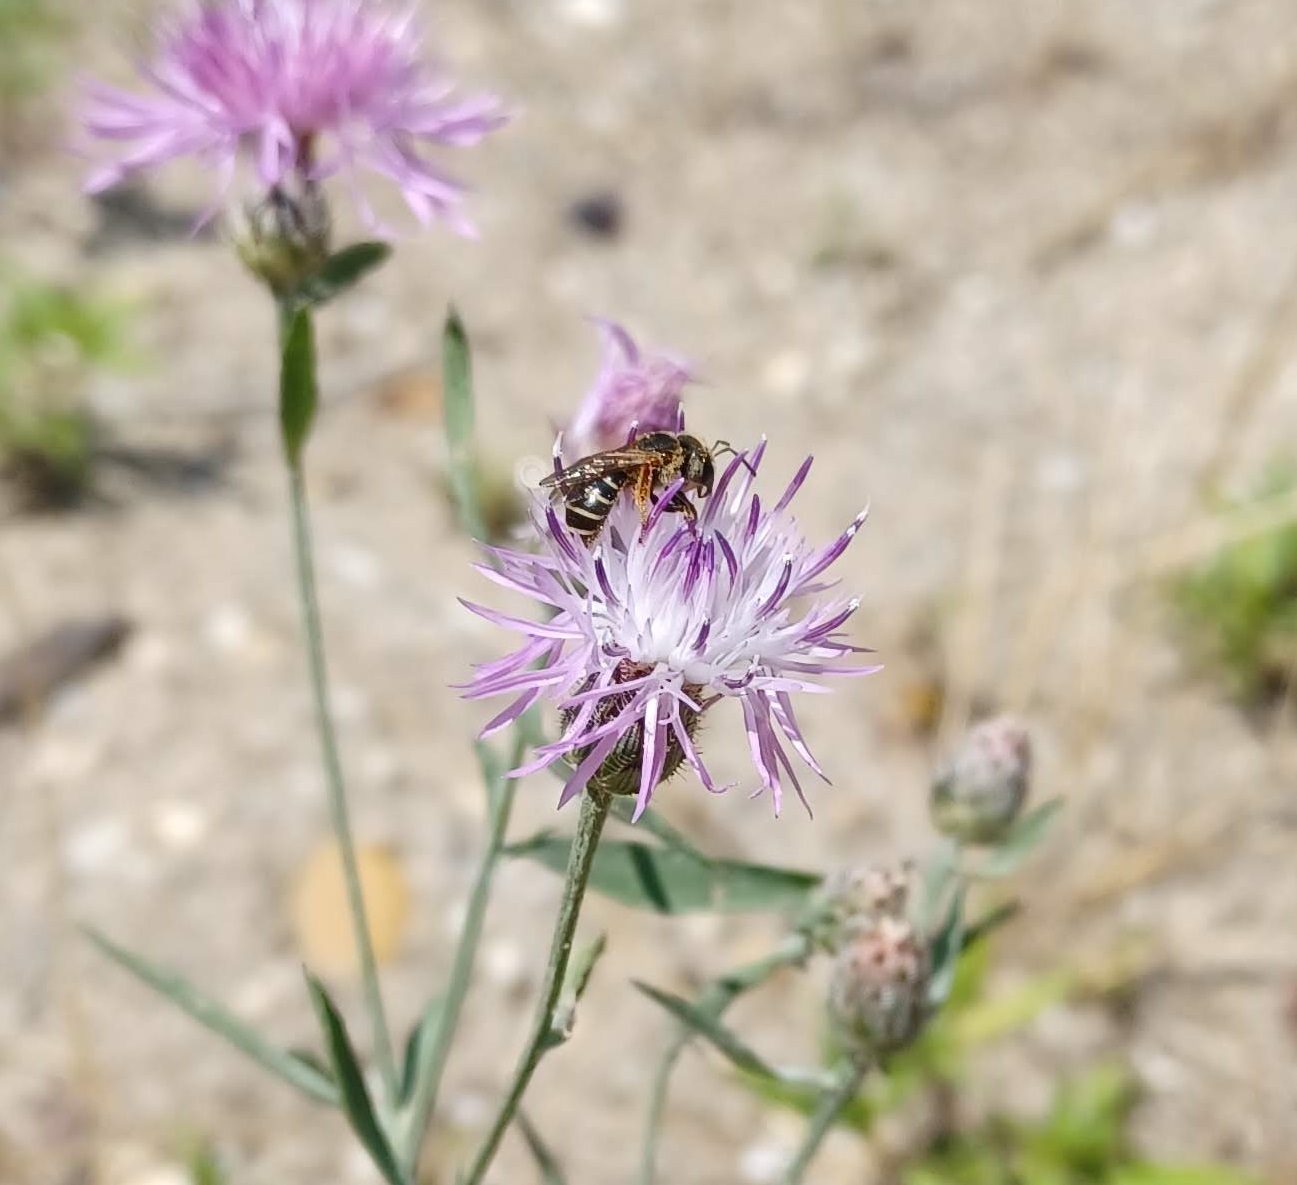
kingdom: Animalia
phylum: Arthropoda
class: Insecta
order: Hymenoptera
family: Halictidae
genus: Halictus
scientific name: Halictus ligatus
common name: Ligated furrow bee
